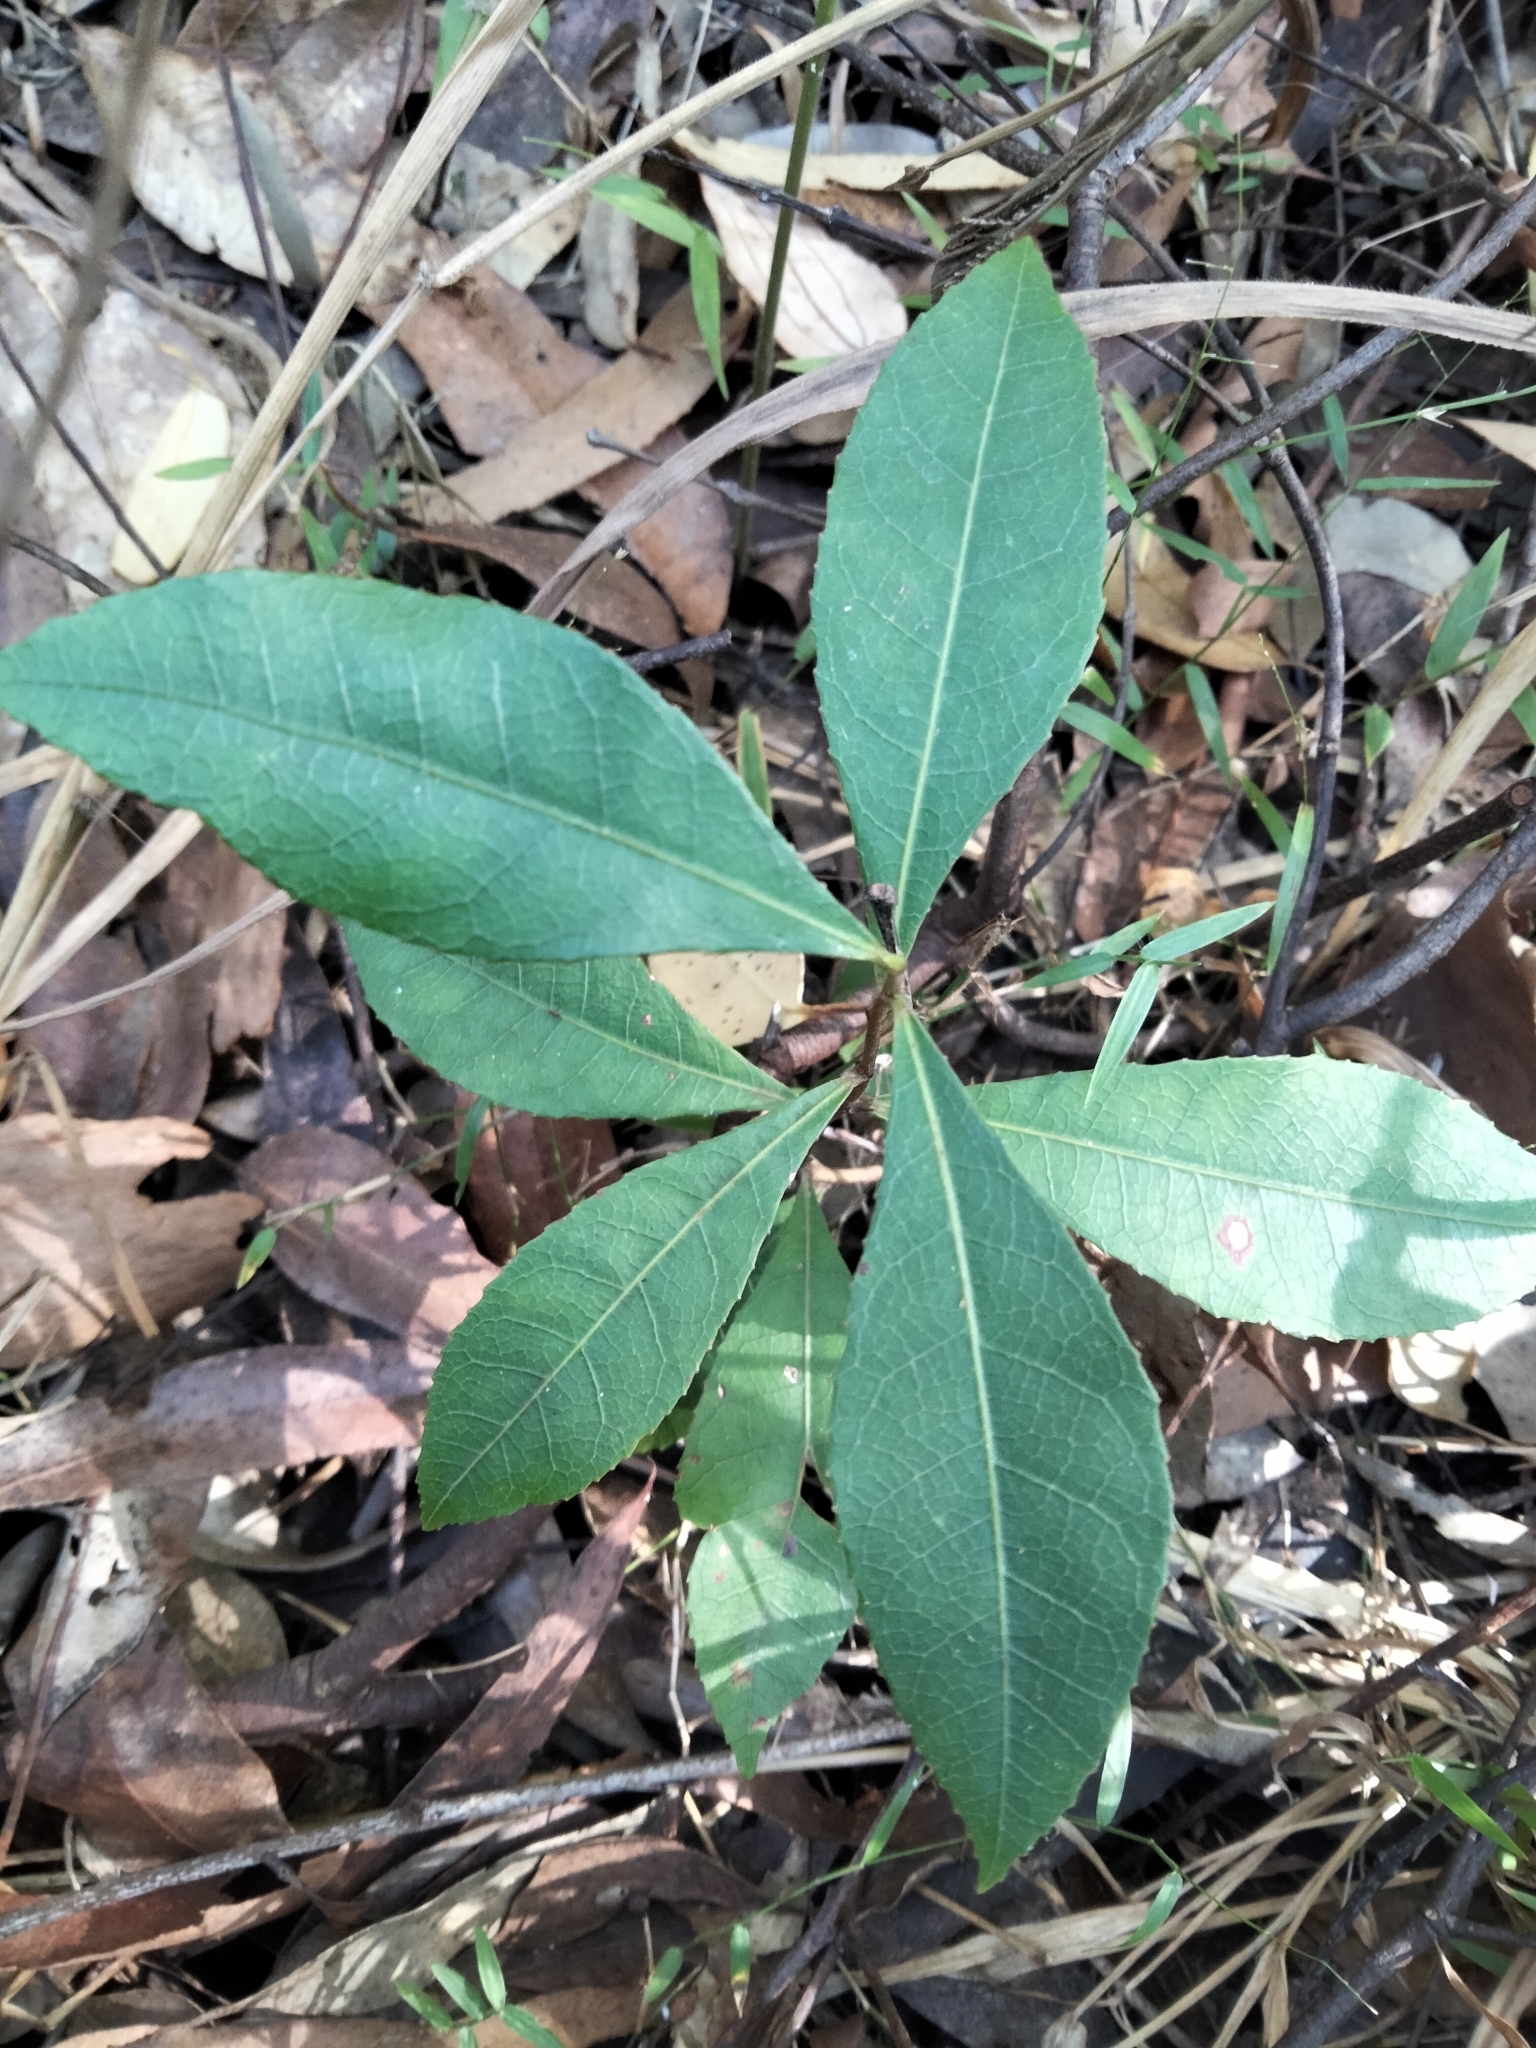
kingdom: Plantae
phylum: Tracheophyta
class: Magnoliopsida
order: Oxalidales
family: Elaeocarpaceae
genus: Elaeocarpus
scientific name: Elaeocarpus reticulatus
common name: Ash quandong
